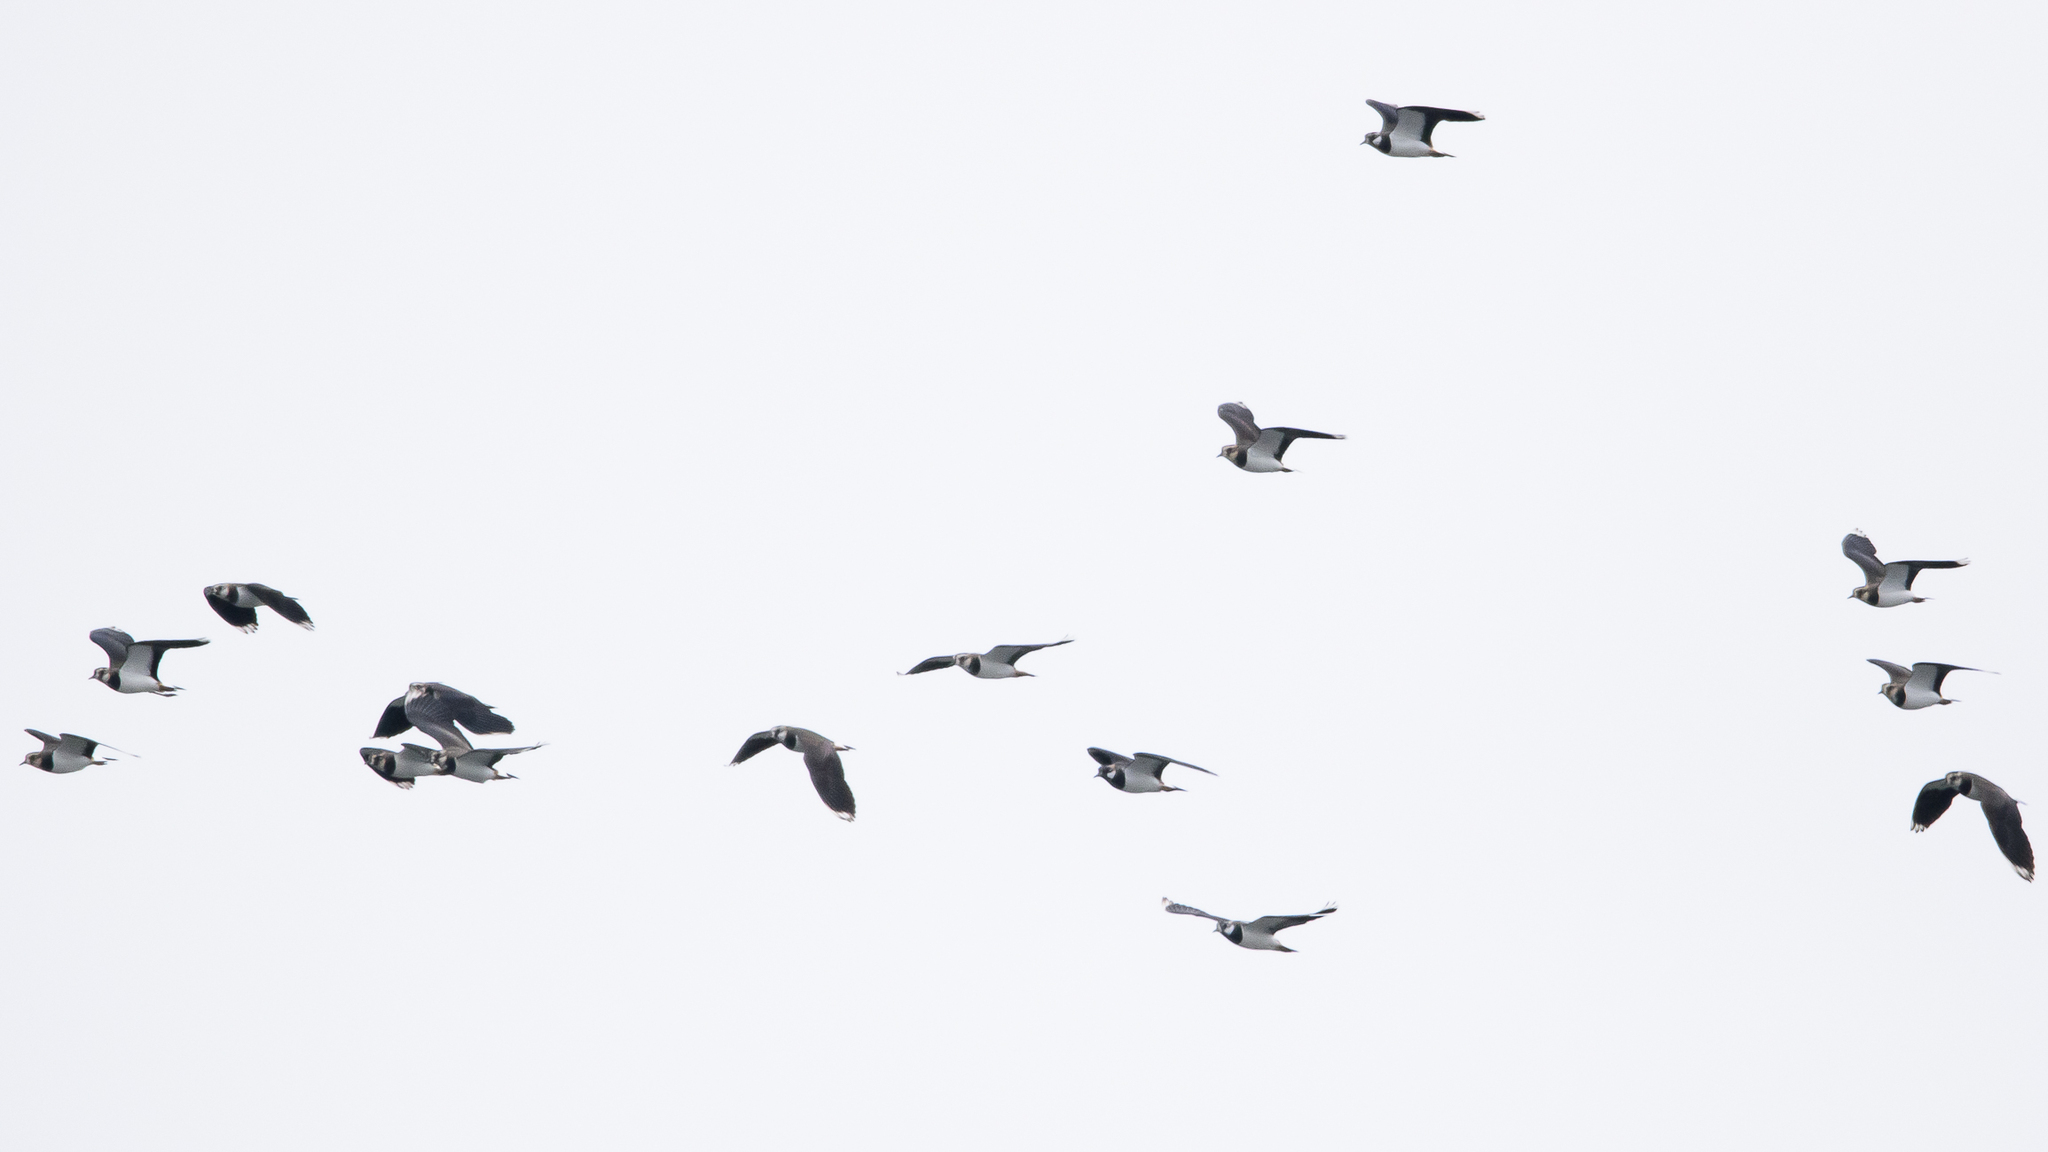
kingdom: Animalia
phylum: Chordata
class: Aves
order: Charadriiformes
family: Charadriidae
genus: Vanellus
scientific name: Vanellus vanellus
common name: Northern lapwing
